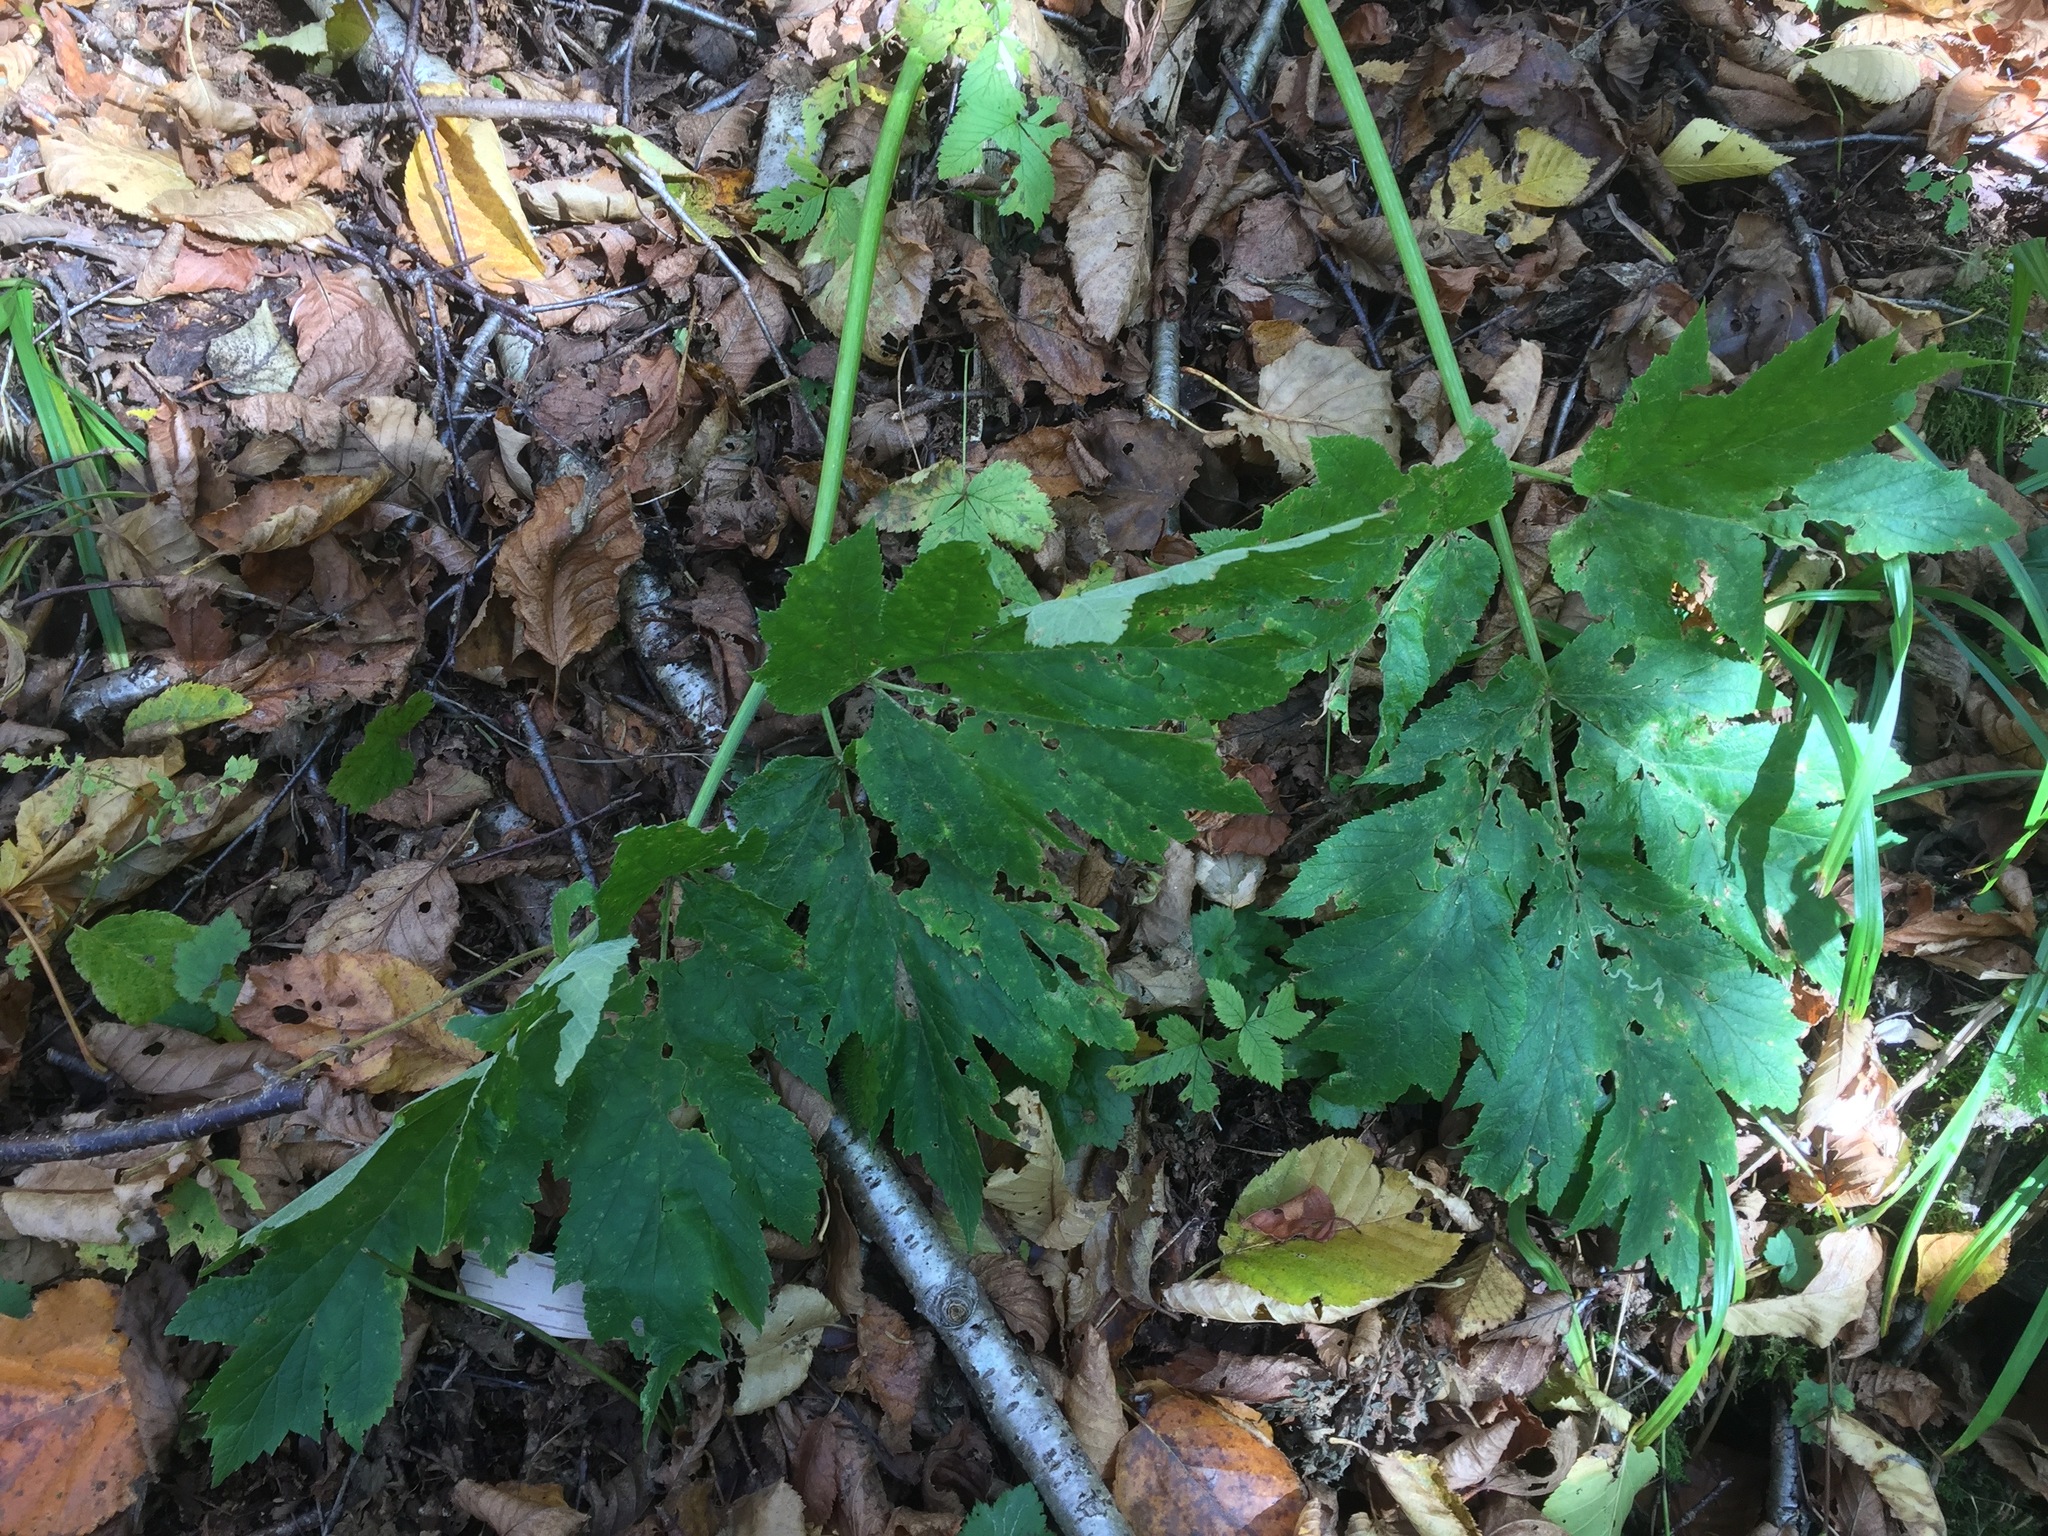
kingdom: Plantae
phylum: Tracheophyta
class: Magnoliopsida
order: Apiales
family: Apiaceae
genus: Heracleum
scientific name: Heracleum maximum
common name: American cow parsnip
